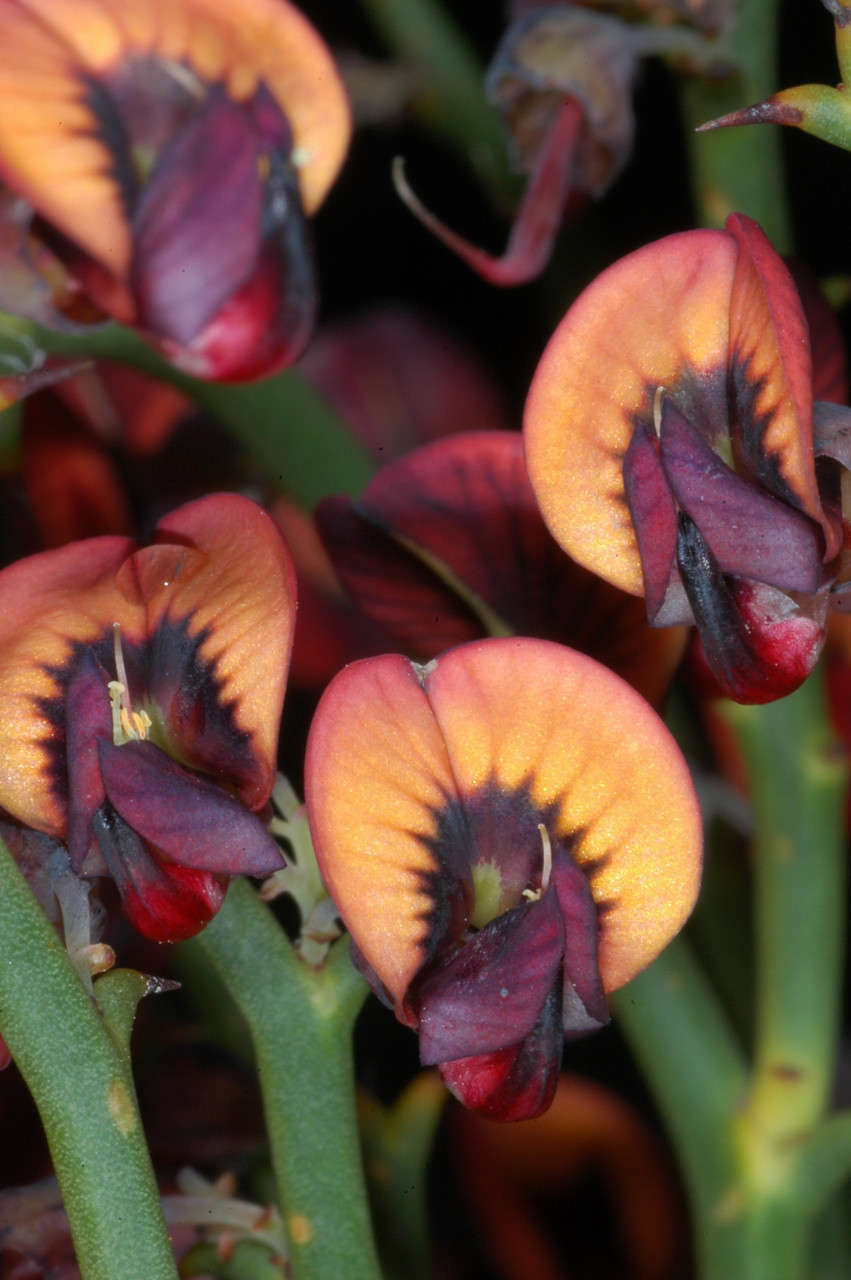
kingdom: Plantae
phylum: Tracheophyta
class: Magnoliopsida
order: Fabales
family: Fabaceae
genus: Daviesia
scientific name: Daviesia brevifolia
